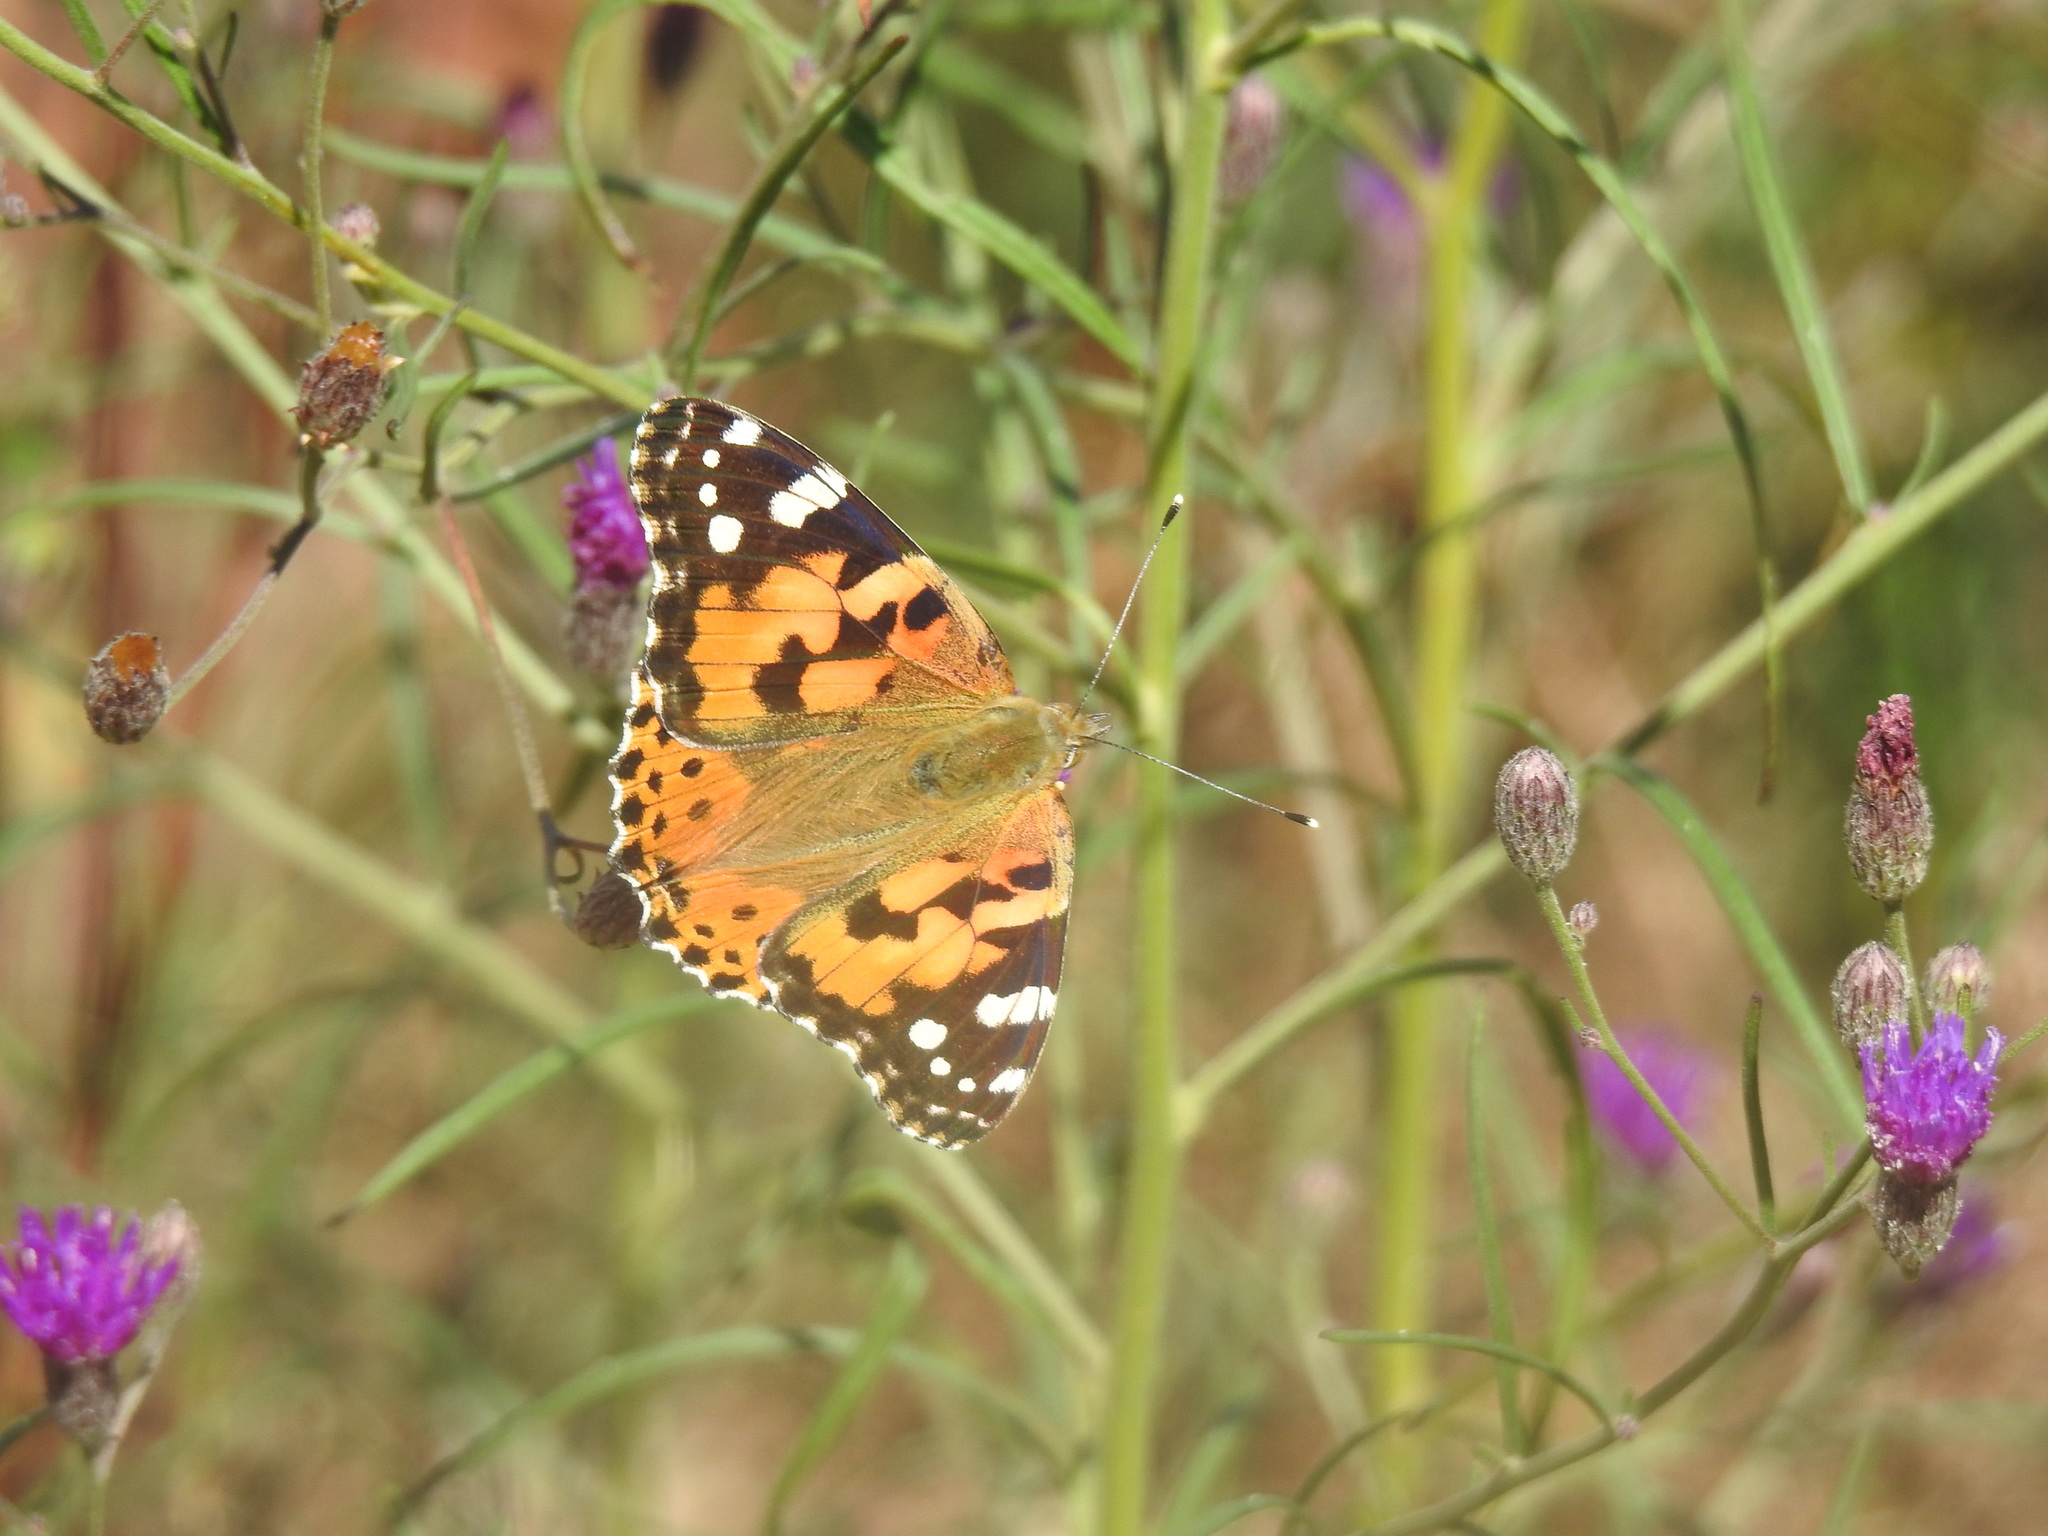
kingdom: Animalia
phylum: Arthropoda
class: Insecta
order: Lepidoptera
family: Nymphalidae
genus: Vanessa
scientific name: Vanessa cardui
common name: Painted lady
